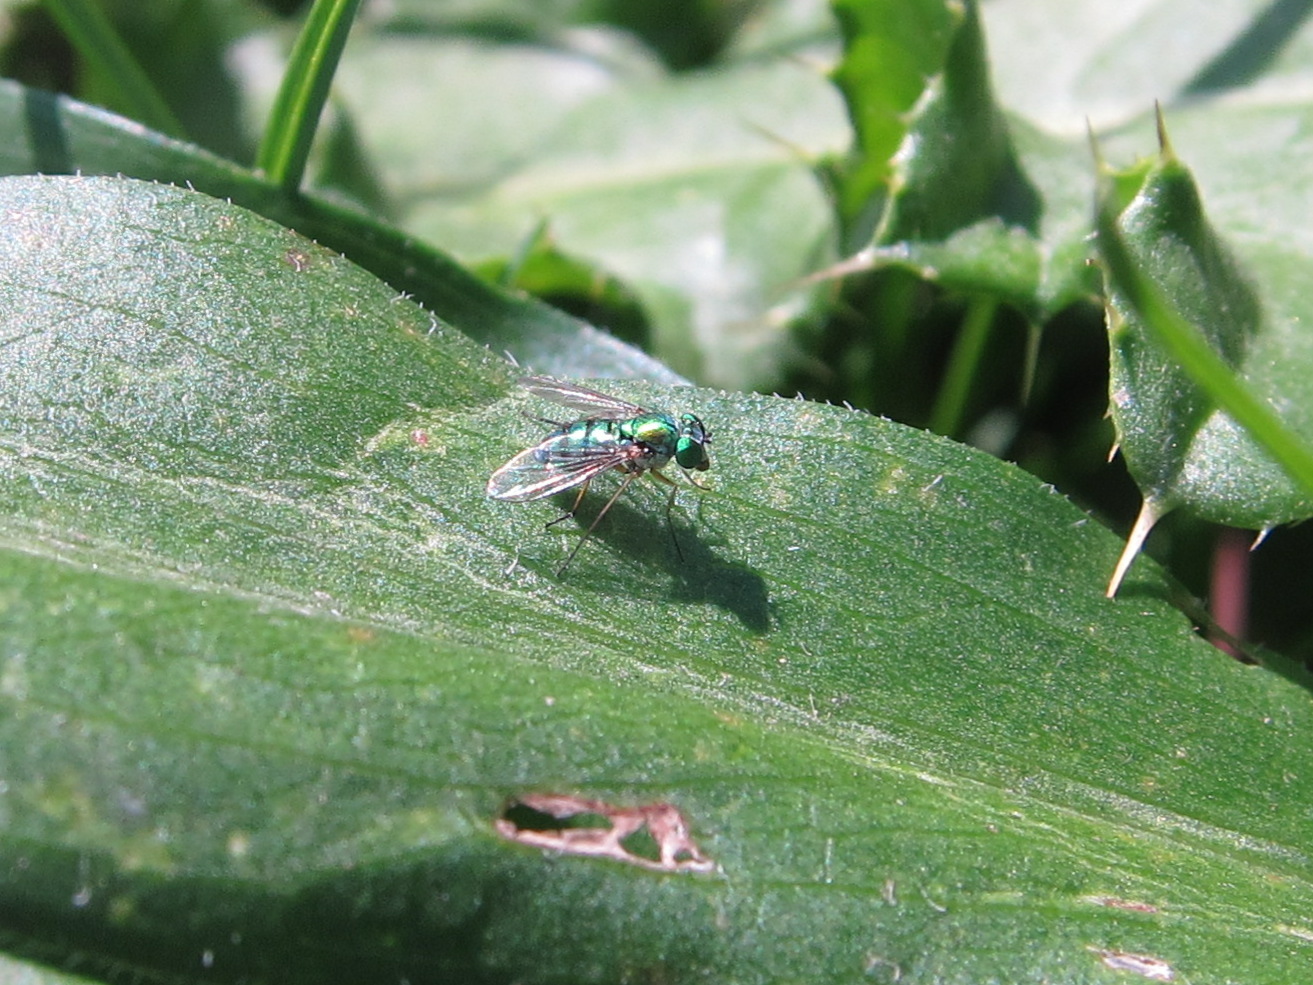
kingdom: Animalia
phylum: Arthropoda
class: Insecta
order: Diptera
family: Dolichopodidae
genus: Condylostylus
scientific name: Condylostylus
